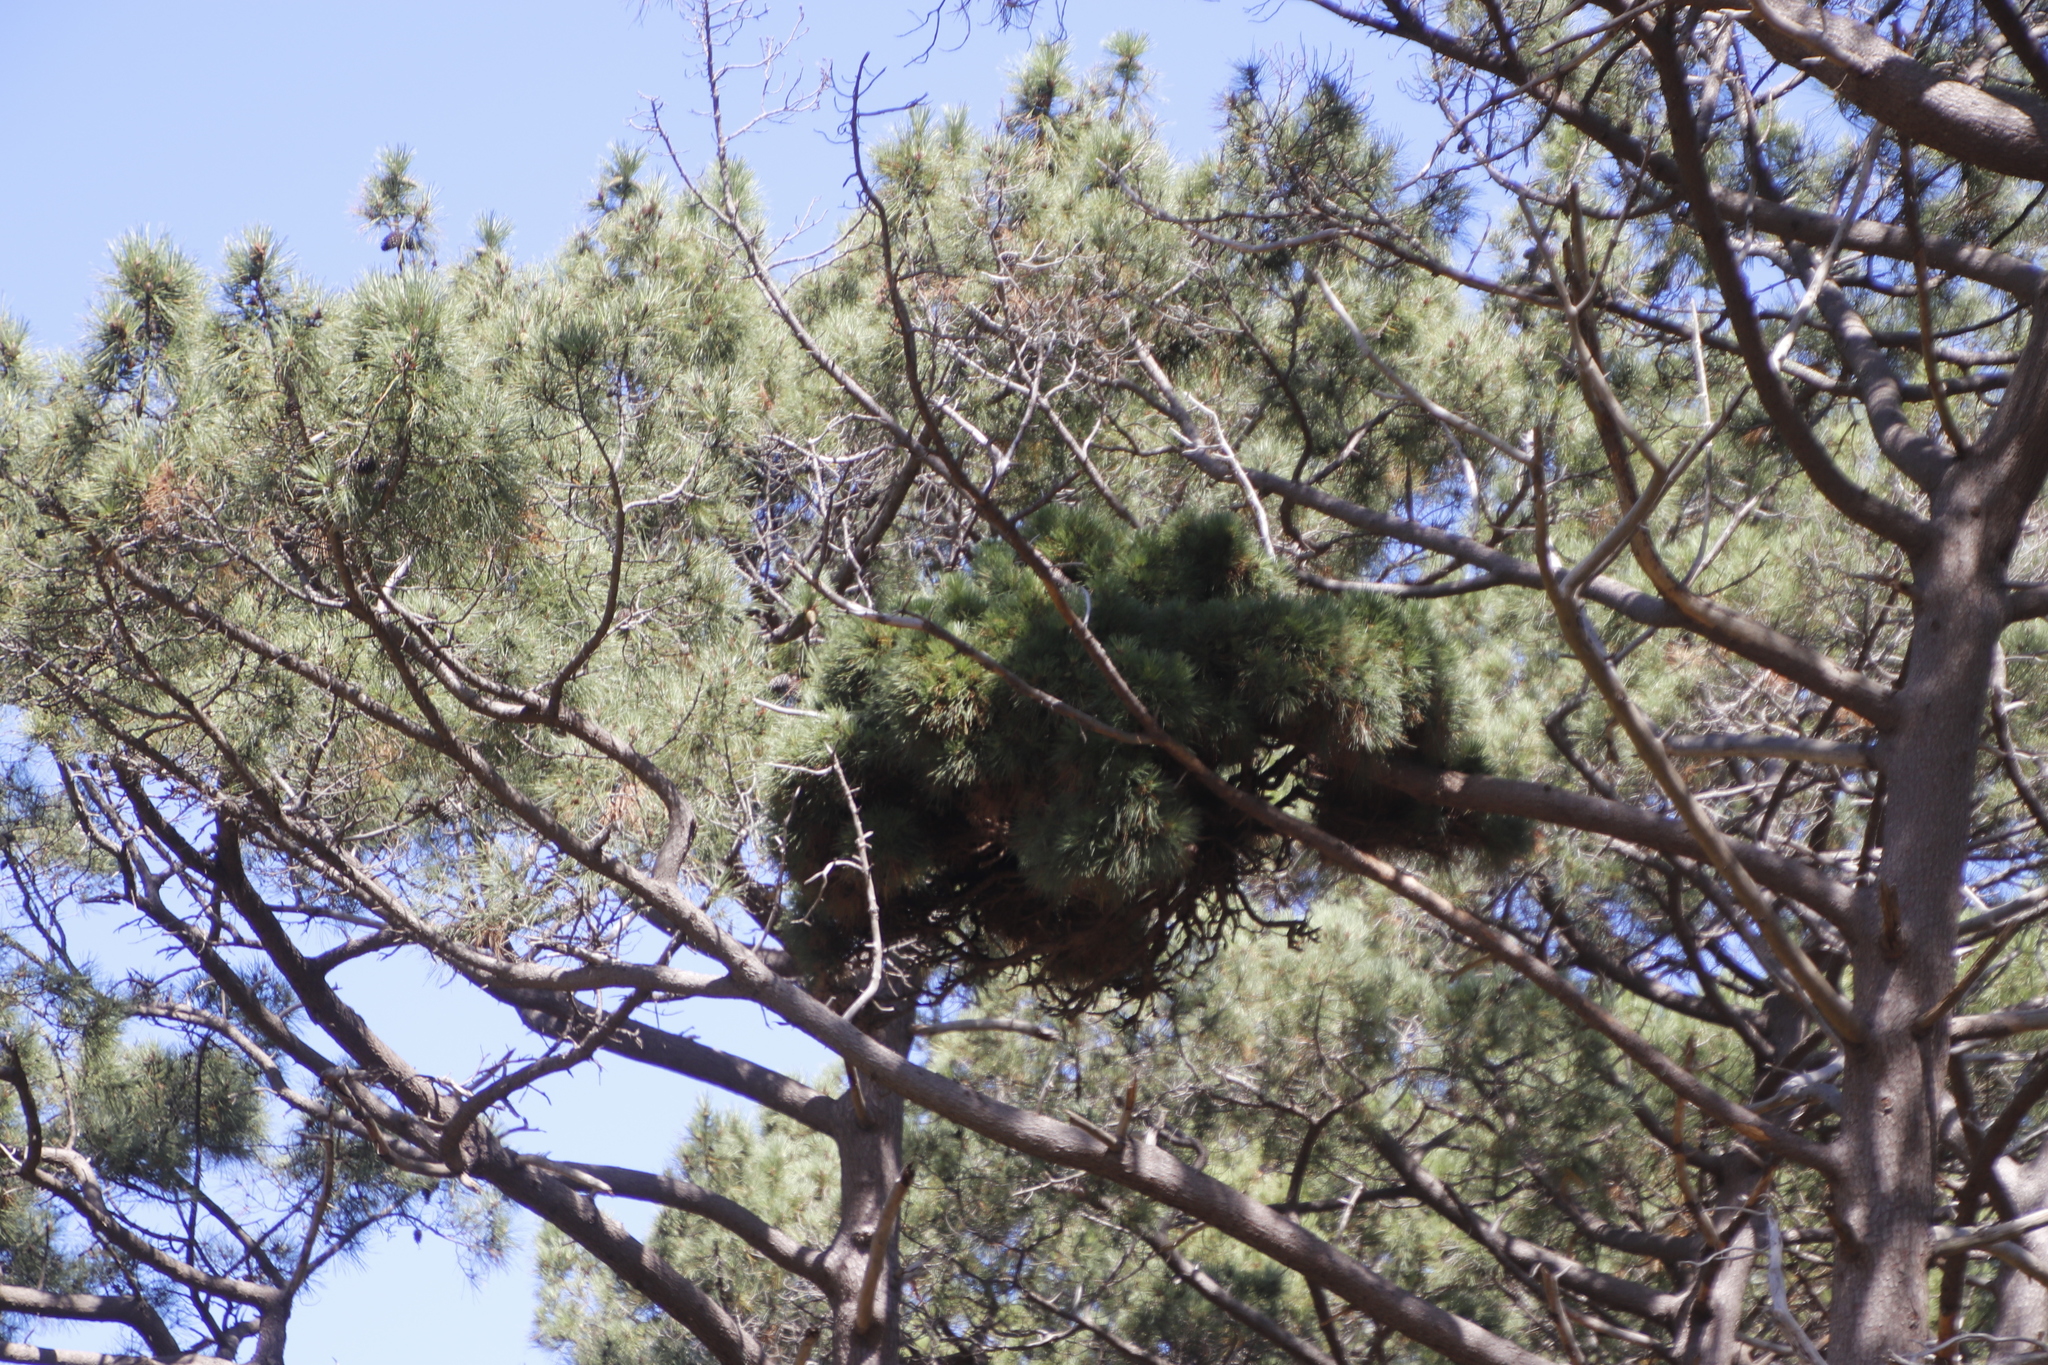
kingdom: Plantae
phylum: Tracheophyta
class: Pinopsida
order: Pinales
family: Pinaceae
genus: Pinus
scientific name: Pinus pinaster
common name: Maritime pine
